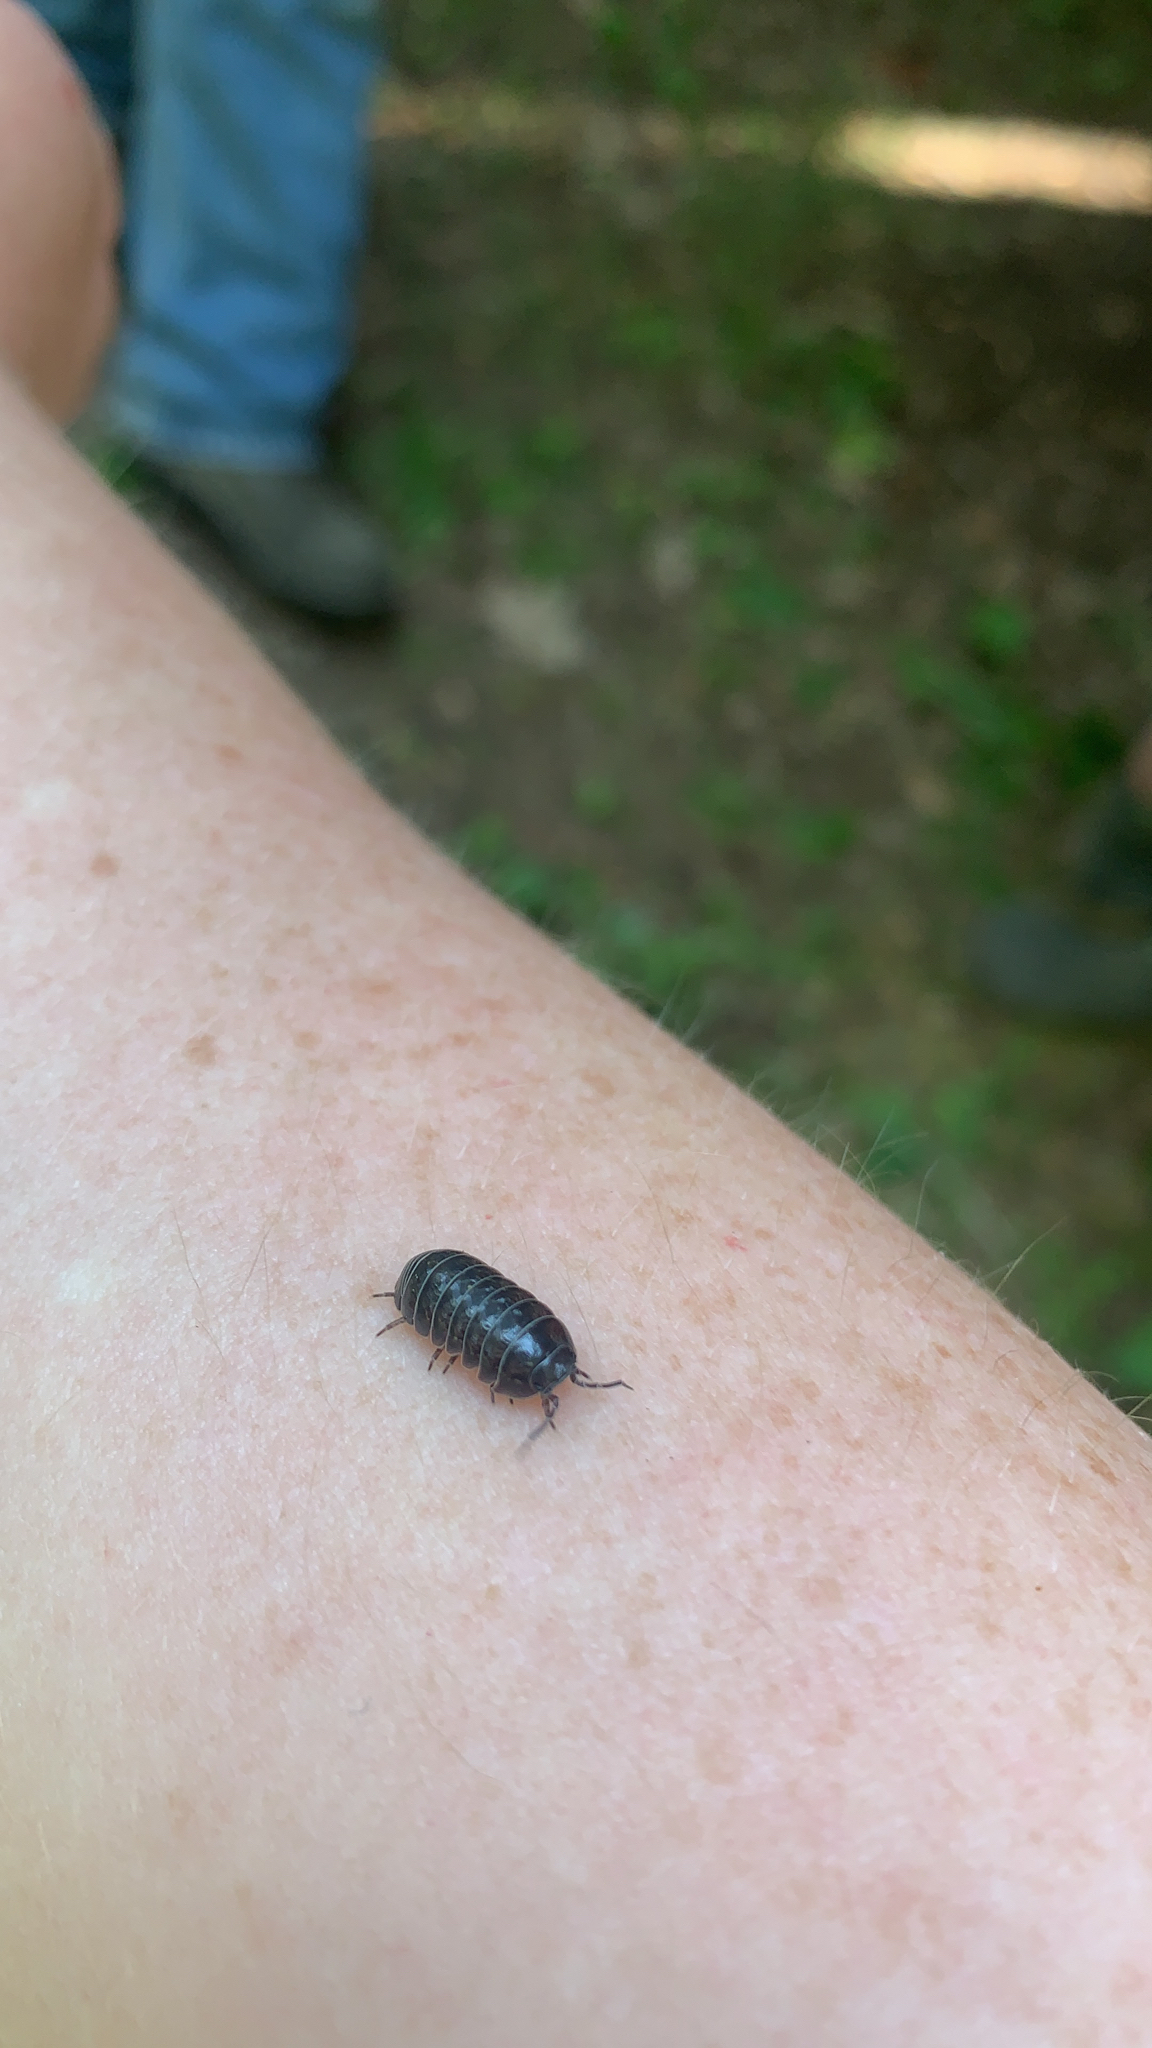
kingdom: Animalia
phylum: Arthropoda
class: Malacostraca
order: Isopoda
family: Armadillidiidae
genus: Armadillidium
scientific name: Armadillidium vulgare
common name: Common pill woodlouse
